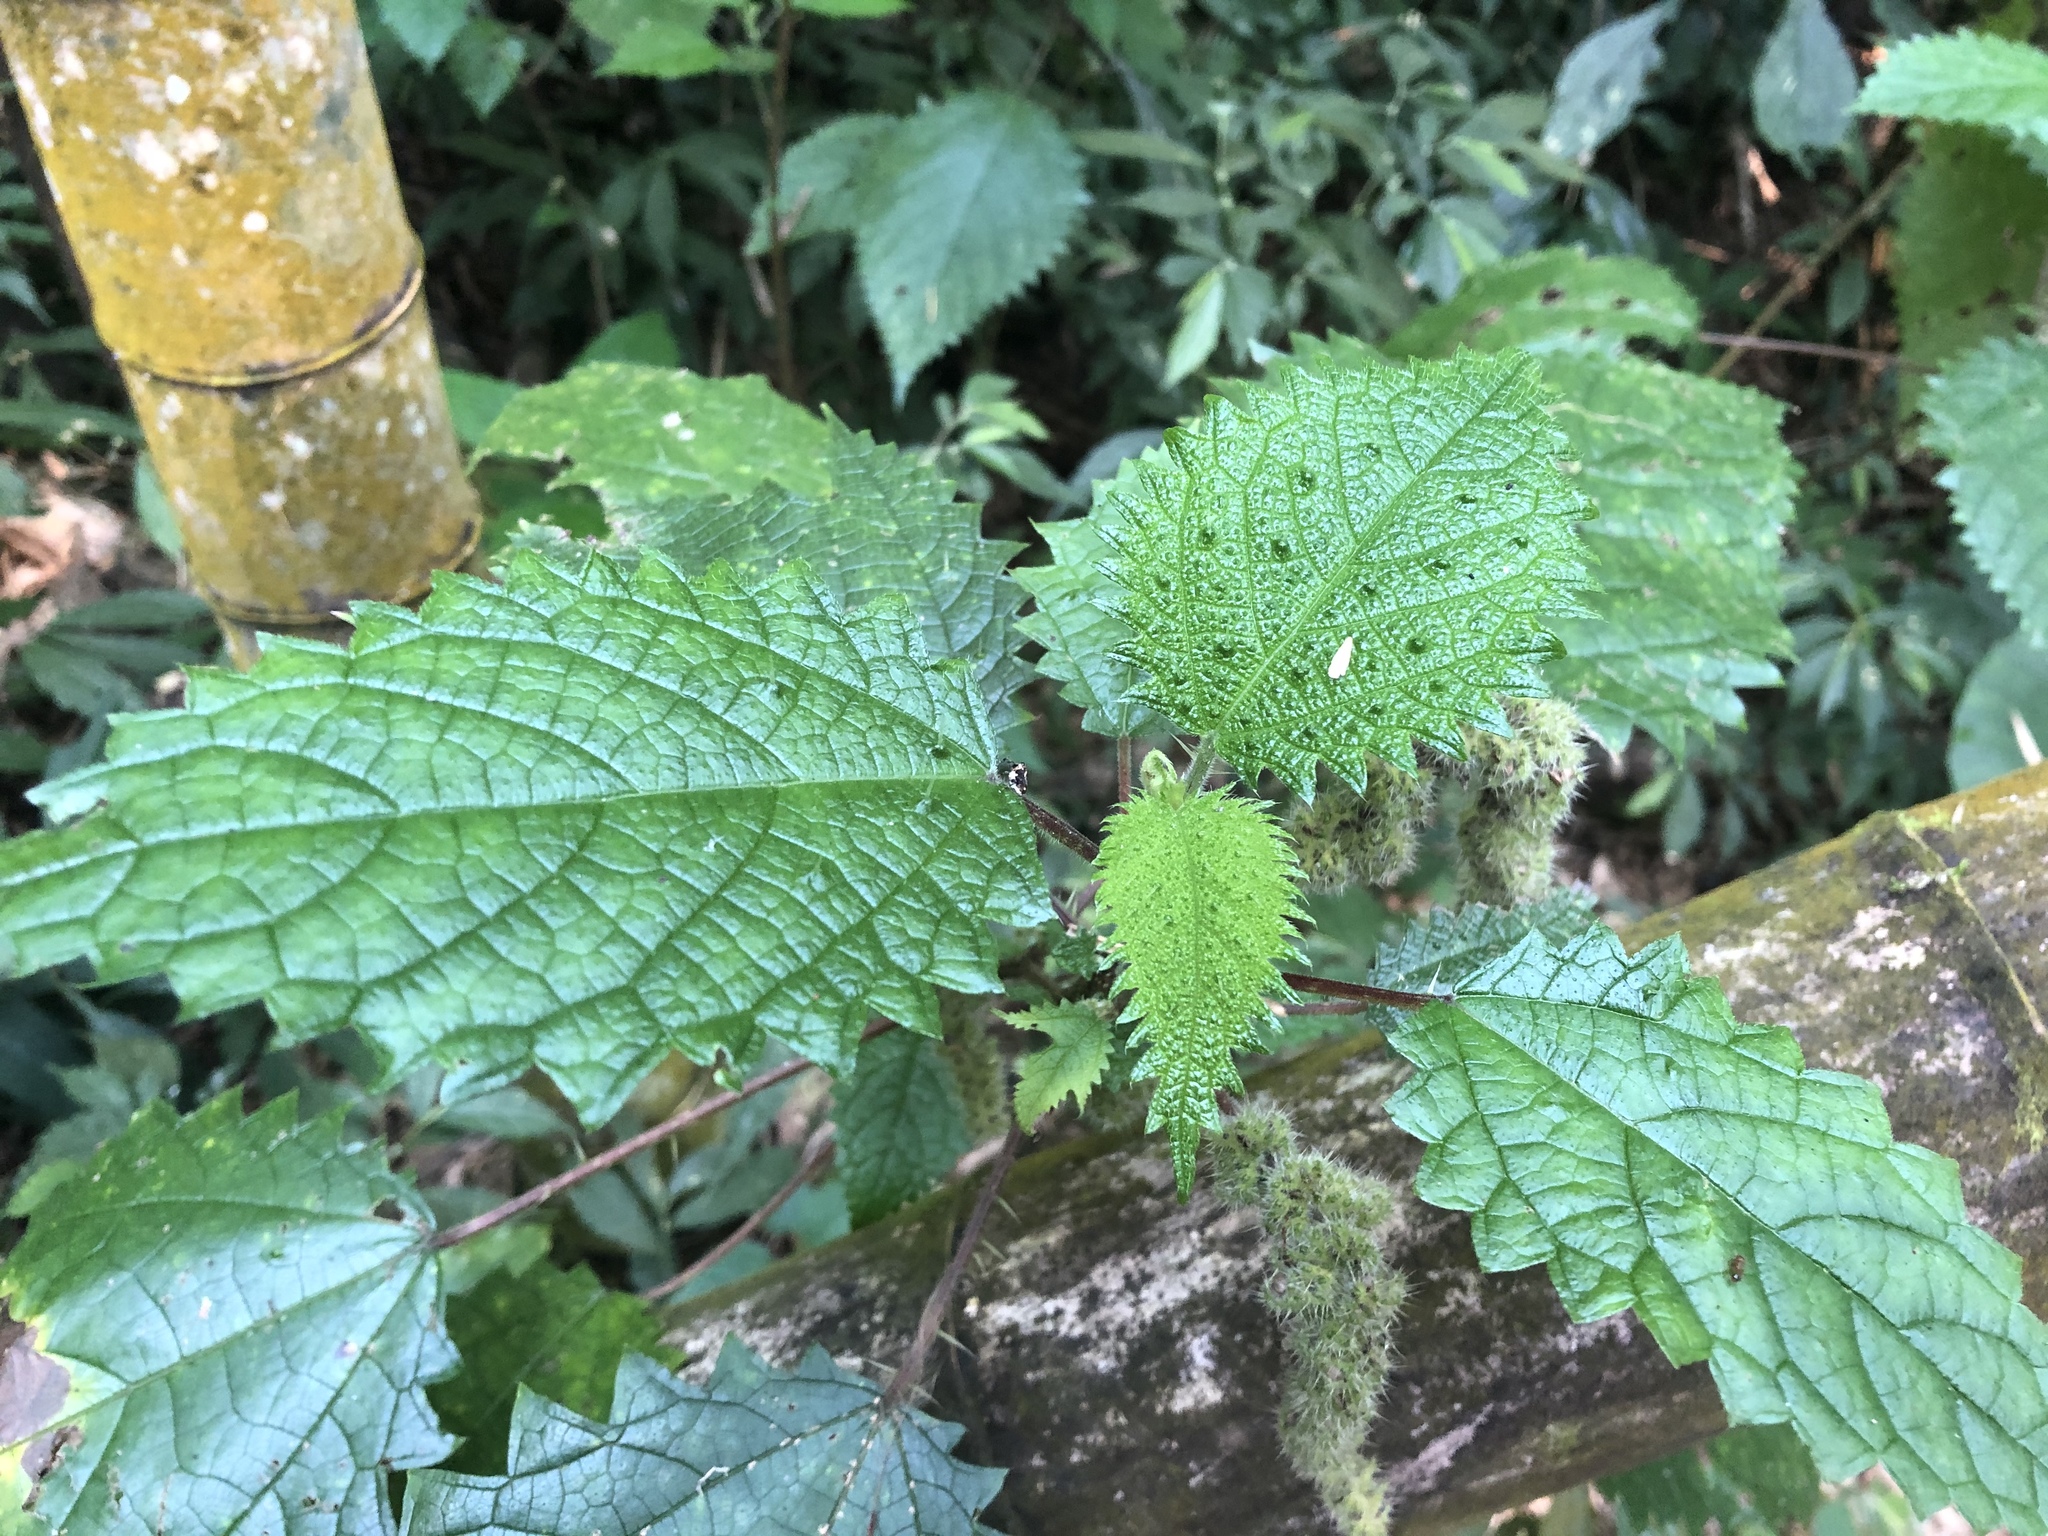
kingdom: Plantae
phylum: Tracheophyta
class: Magnoliopsida
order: Rosales
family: Urticaceae
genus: Girardinia
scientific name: Girardinia diversifolia
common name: Himalayan-nettle
